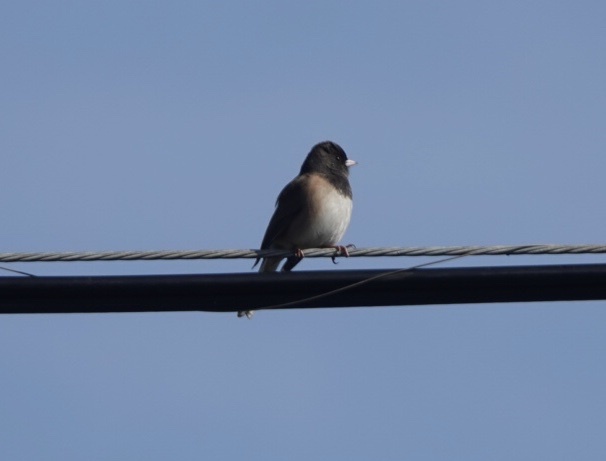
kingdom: Animalia
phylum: Chordata
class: Aves
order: Passeriformes
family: Passerellidae
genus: Junco
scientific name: Junco hyemalis
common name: Dark-eyed junco
